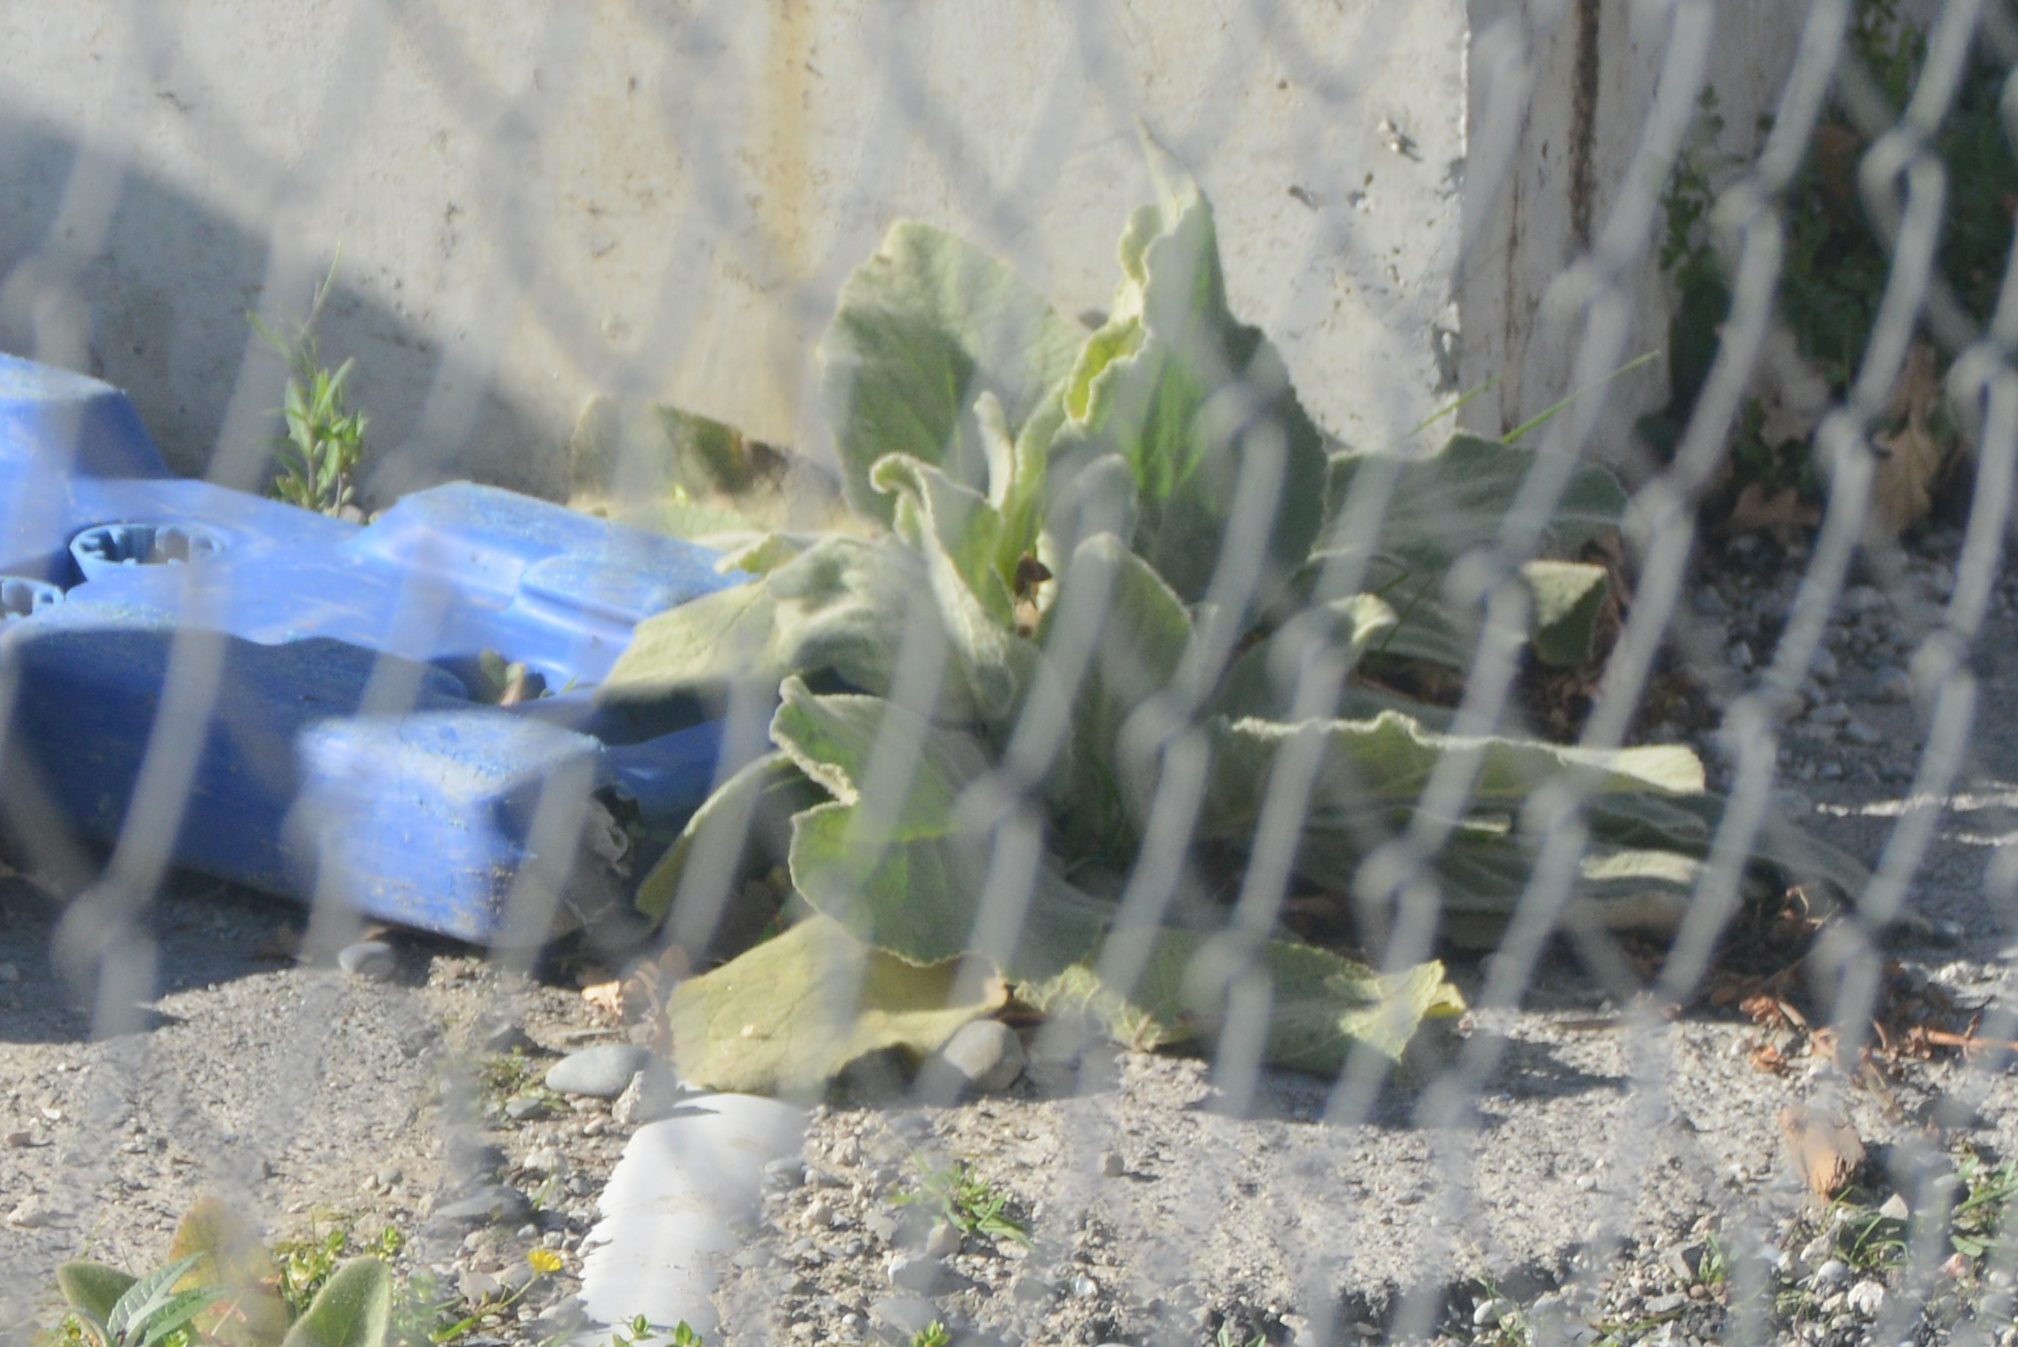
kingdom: Plantae
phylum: Tracheophyta
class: Magnoliopsida
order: Lamiales
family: Scrophulariaceae
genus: Verbascum
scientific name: Verbascum thapsus
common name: Common mullein
